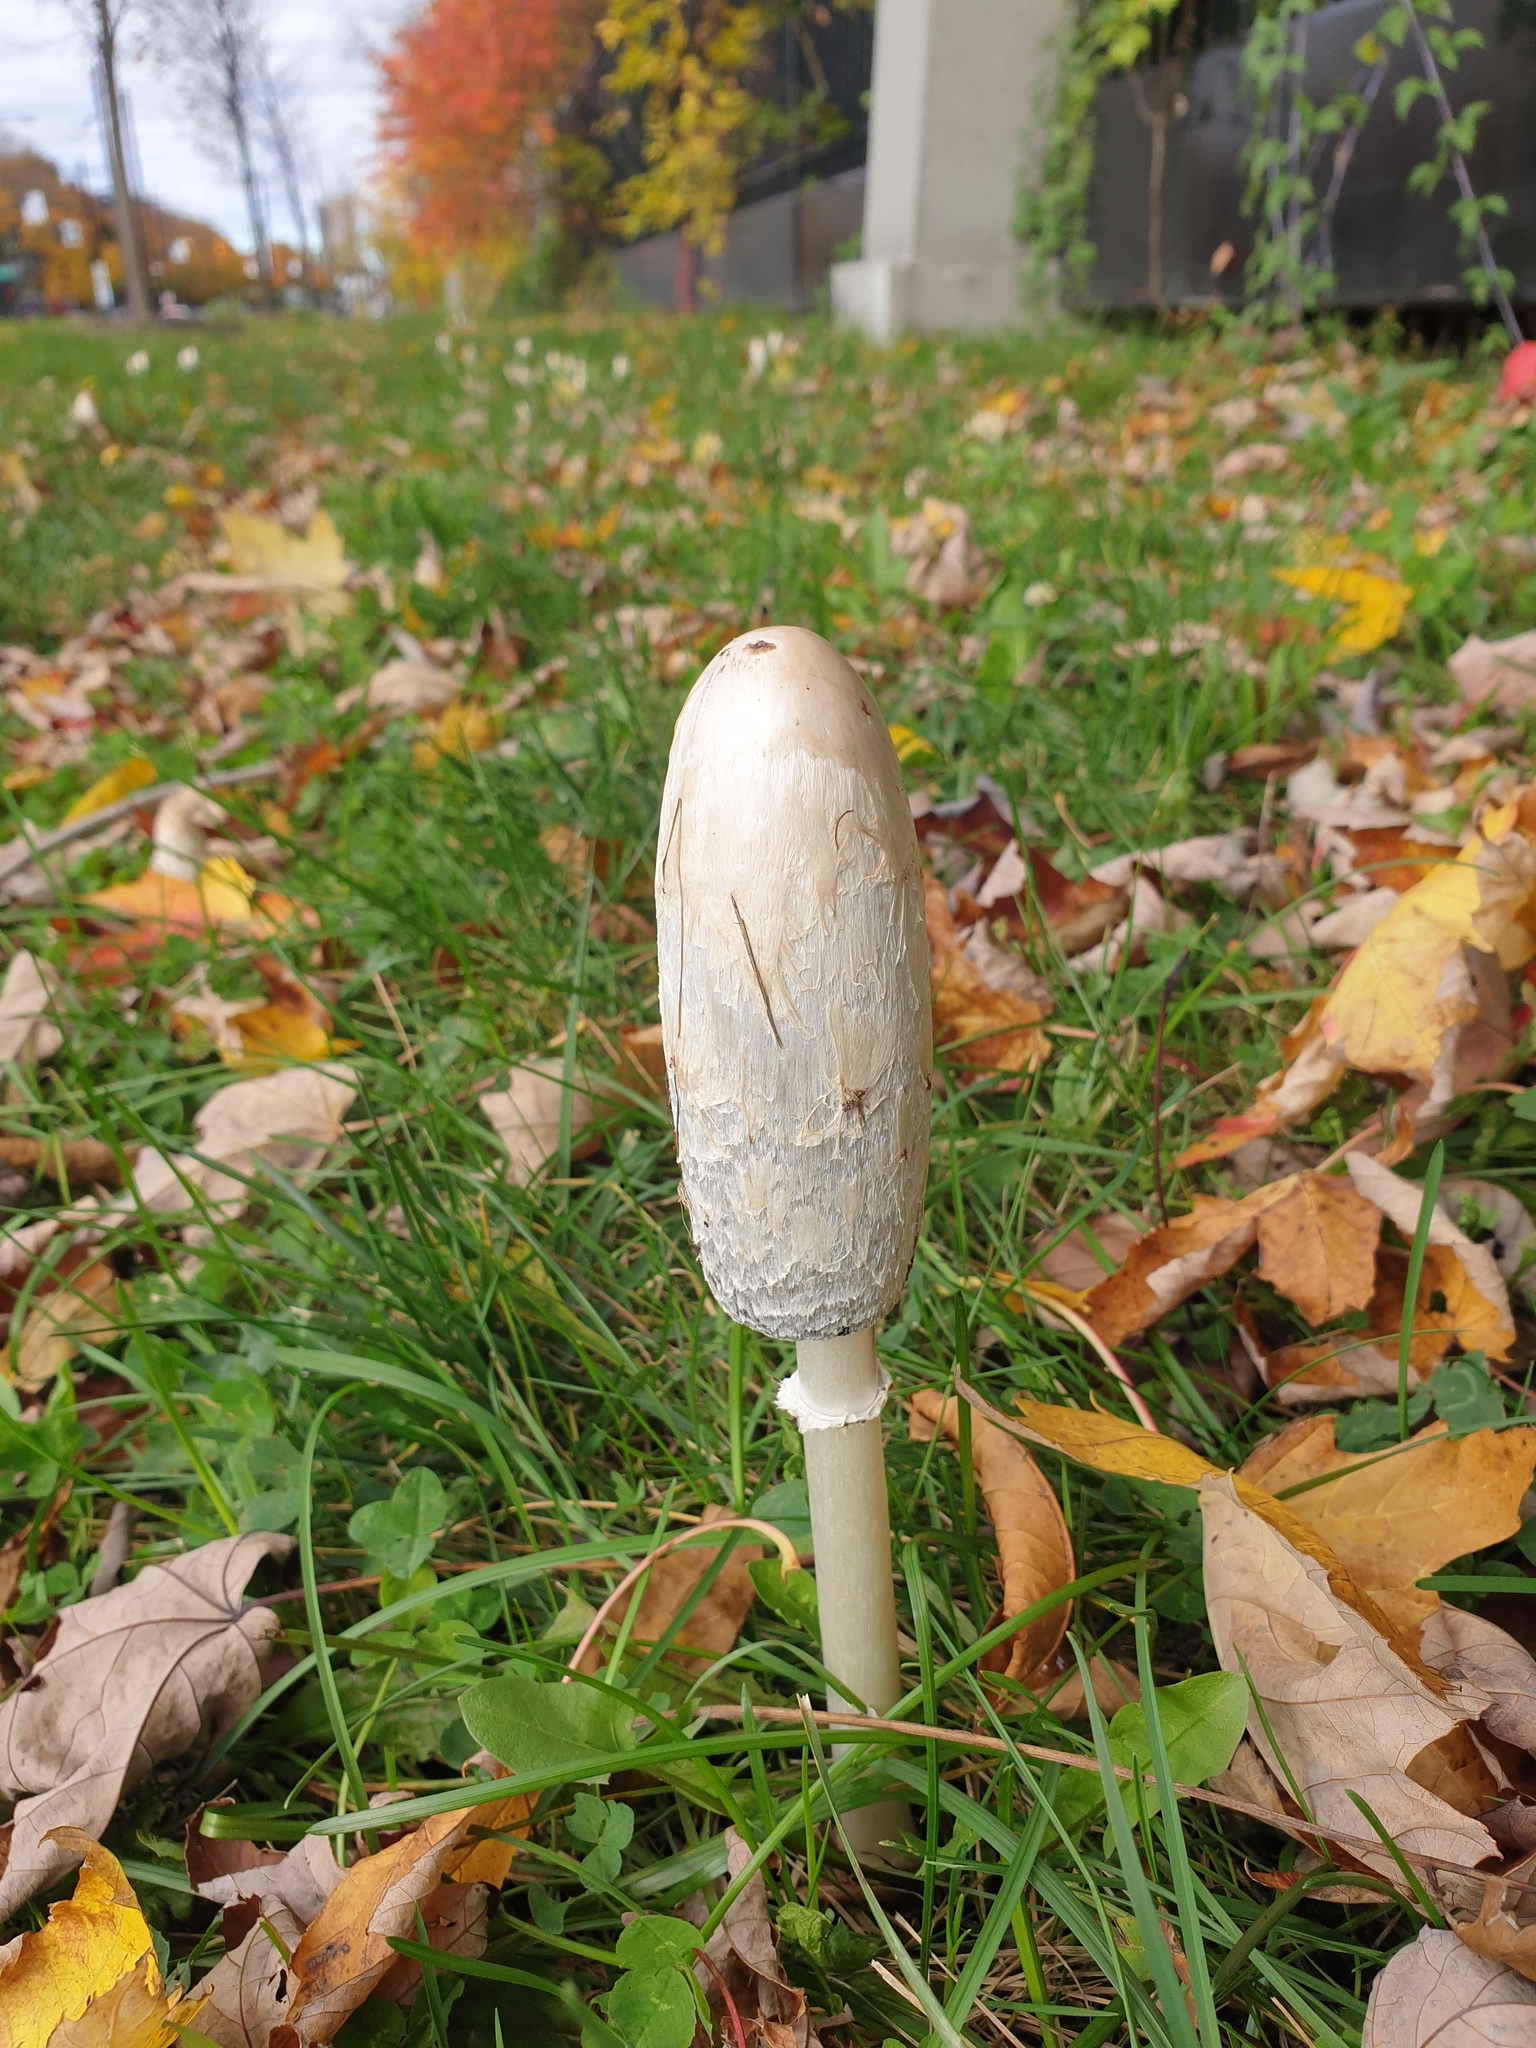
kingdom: Fungi
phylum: Basidiomycota
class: Agaricomycetes
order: Agaricales
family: Agaricaceae
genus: Coprinus
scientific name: Coprinus comatus
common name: Lawyer's wig
